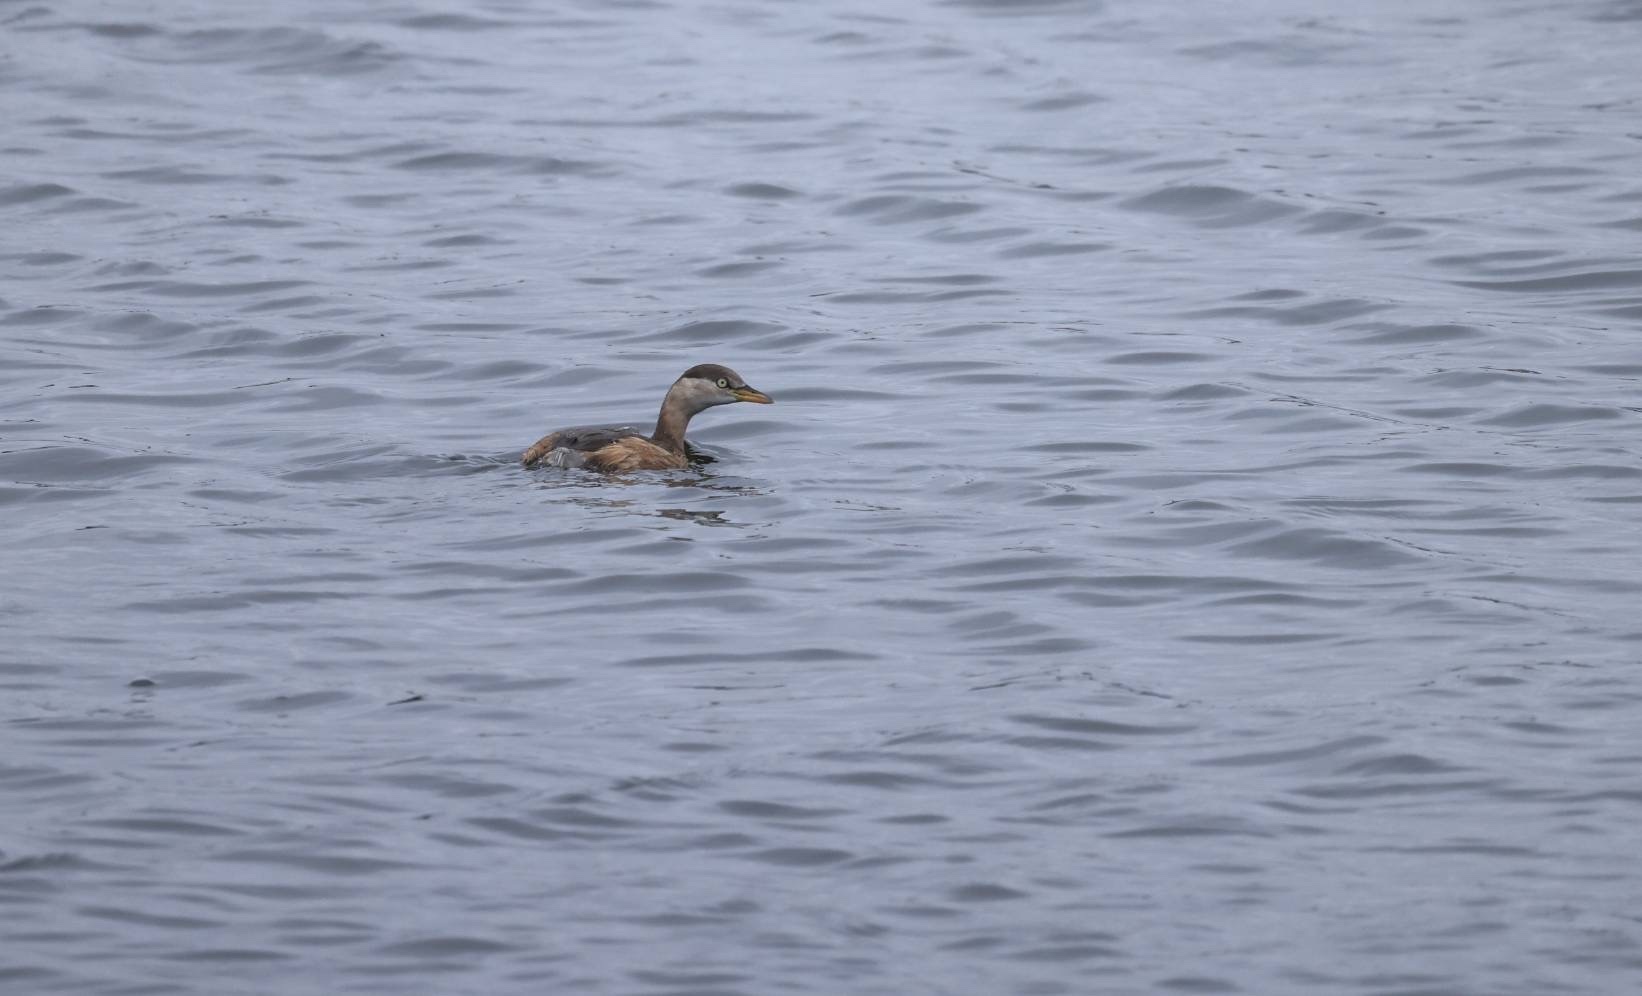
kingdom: Animalia
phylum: Chordata
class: Aves
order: Podicipediformes
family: Podicipedidae
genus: Tachybaptus
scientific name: Tachybaptus ruficollis
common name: Little grebe
